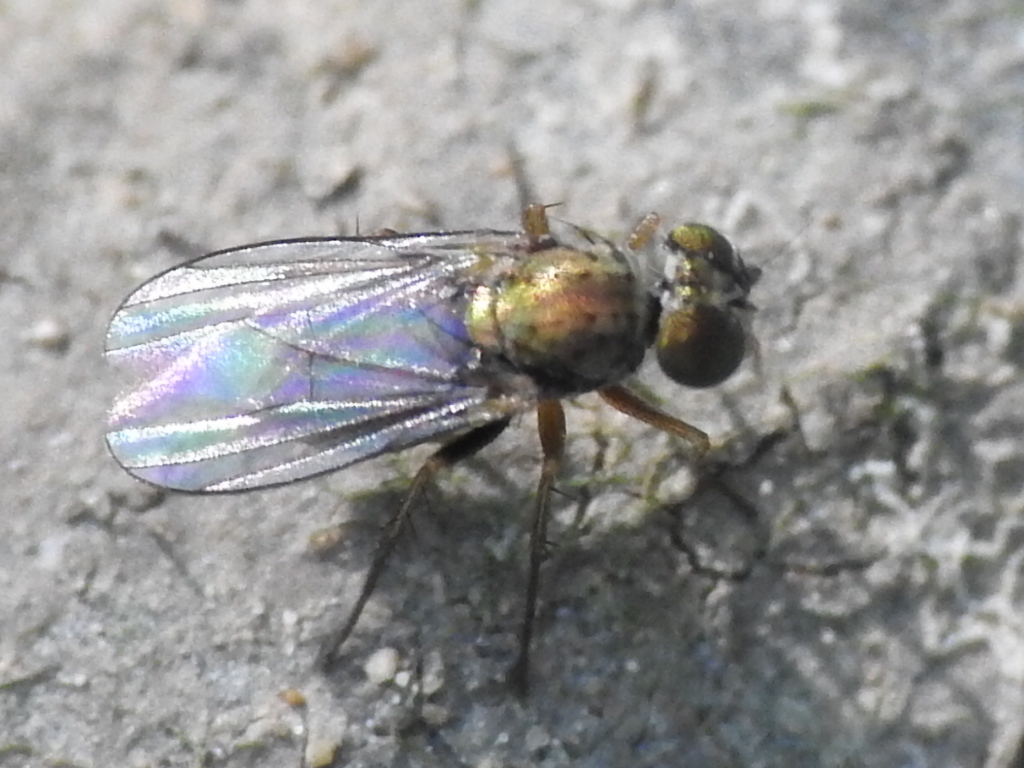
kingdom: Animalia
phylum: Arthropoda
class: Insecta
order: Diptera
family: Dolichopodidae
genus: Achradocera
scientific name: Achradocera barbata
